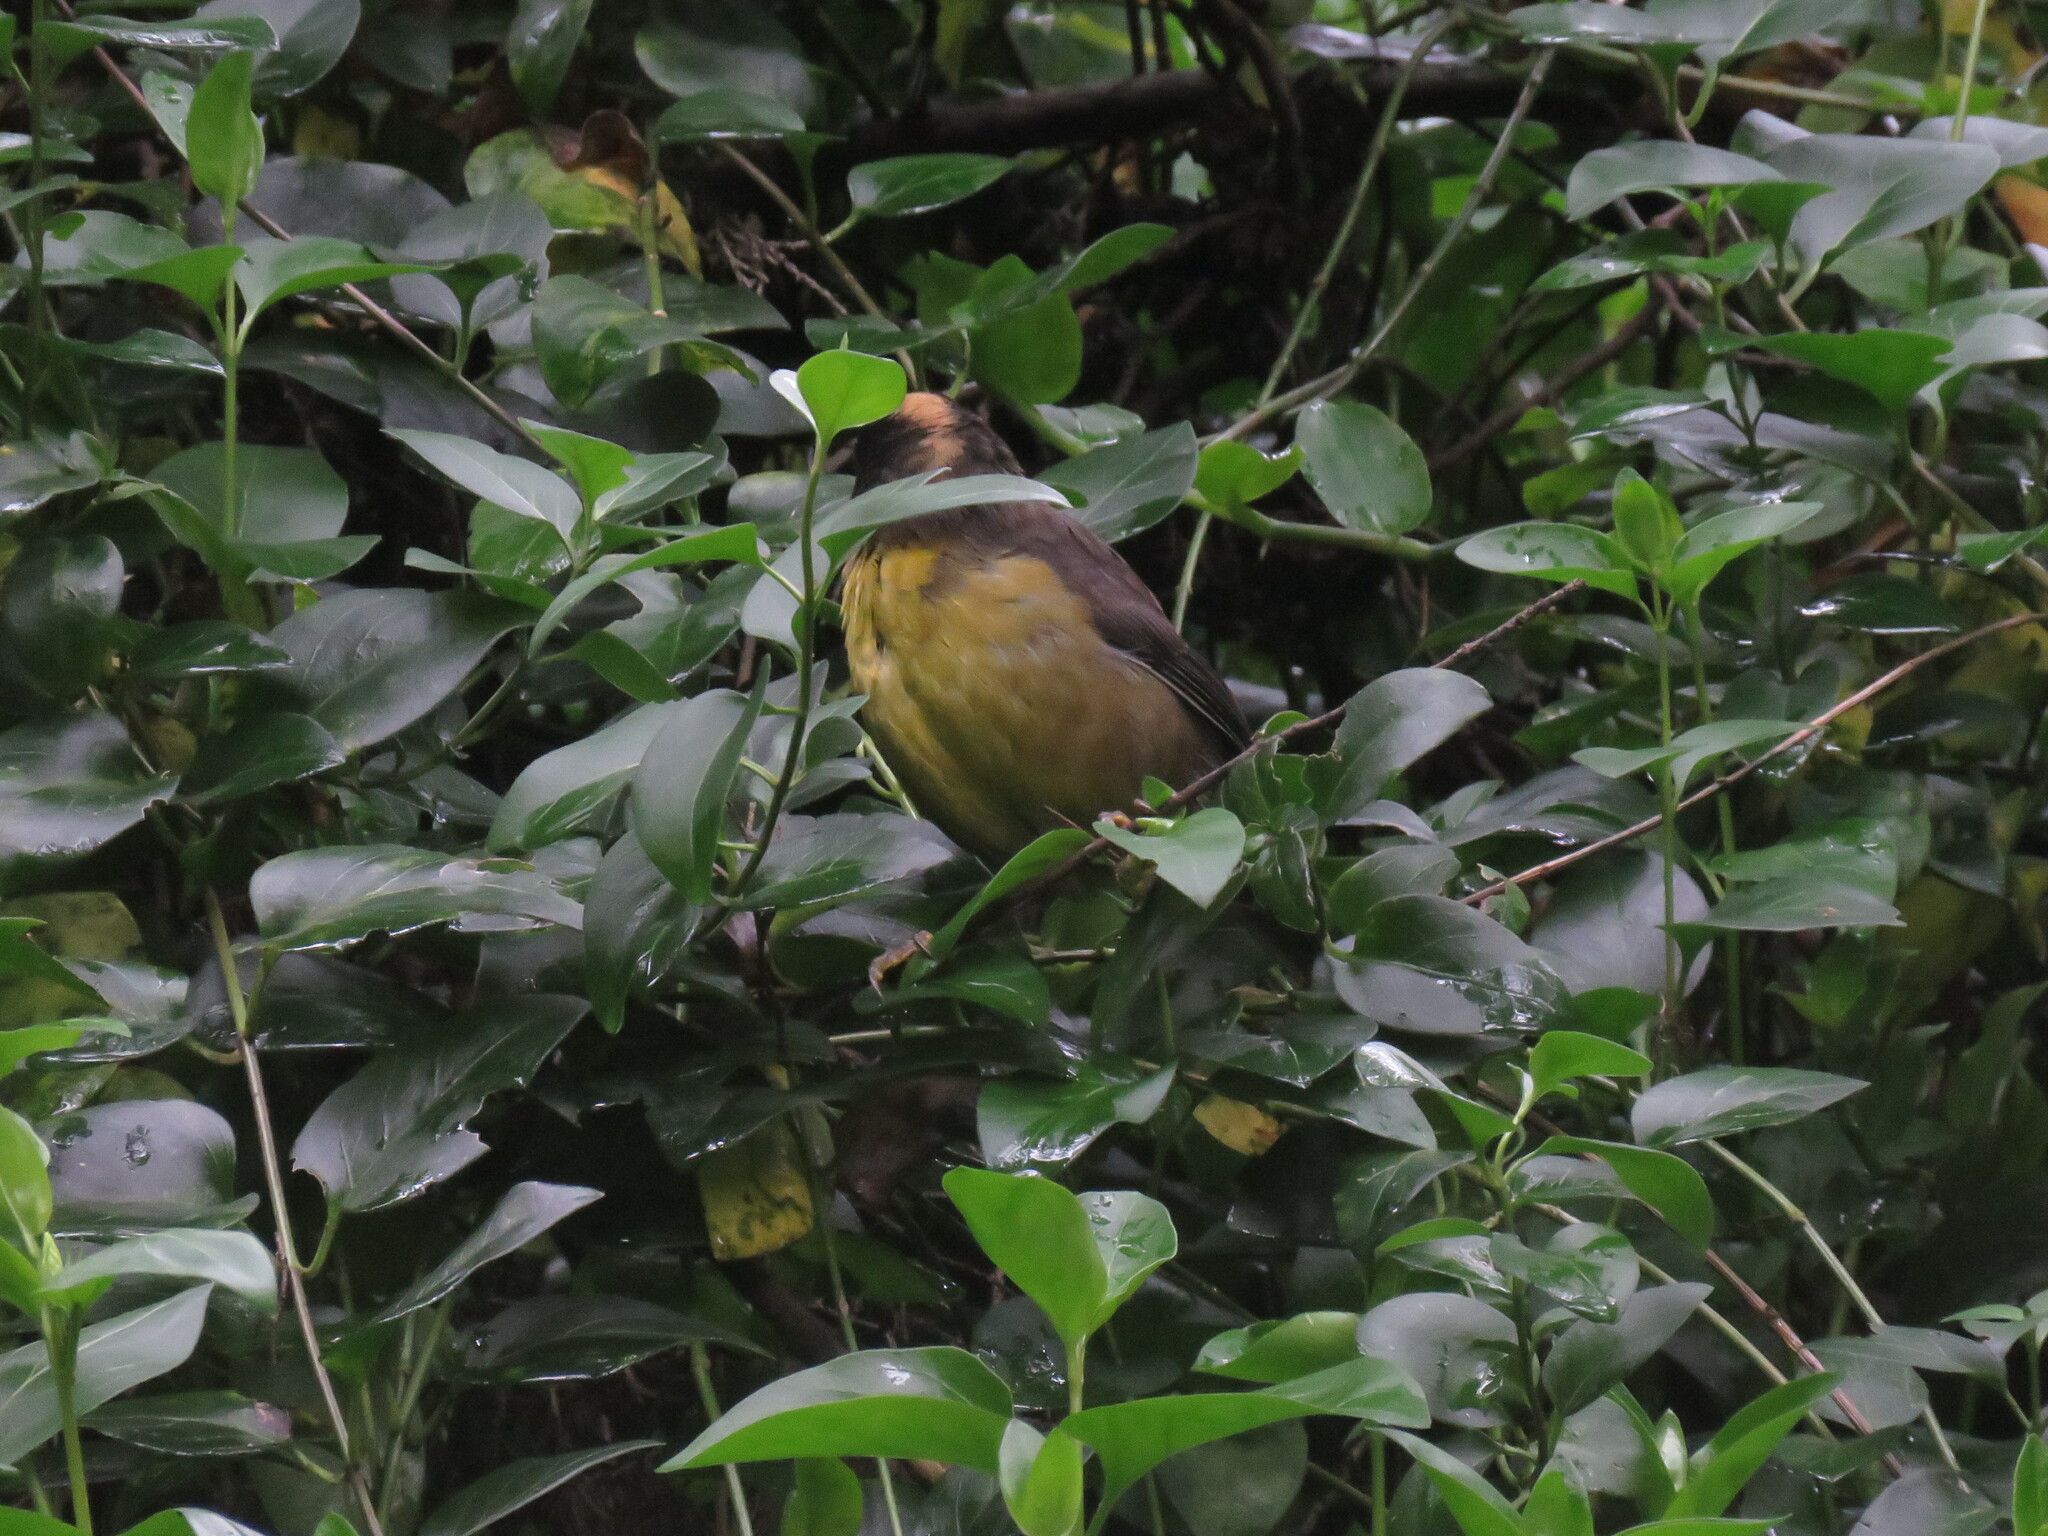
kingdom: Animalia
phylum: Chordata
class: Aves
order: Passeriformes
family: Passerellidae
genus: Atlapetes
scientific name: Atlapetes pallidinucha
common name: Pale-naped brushfinch
